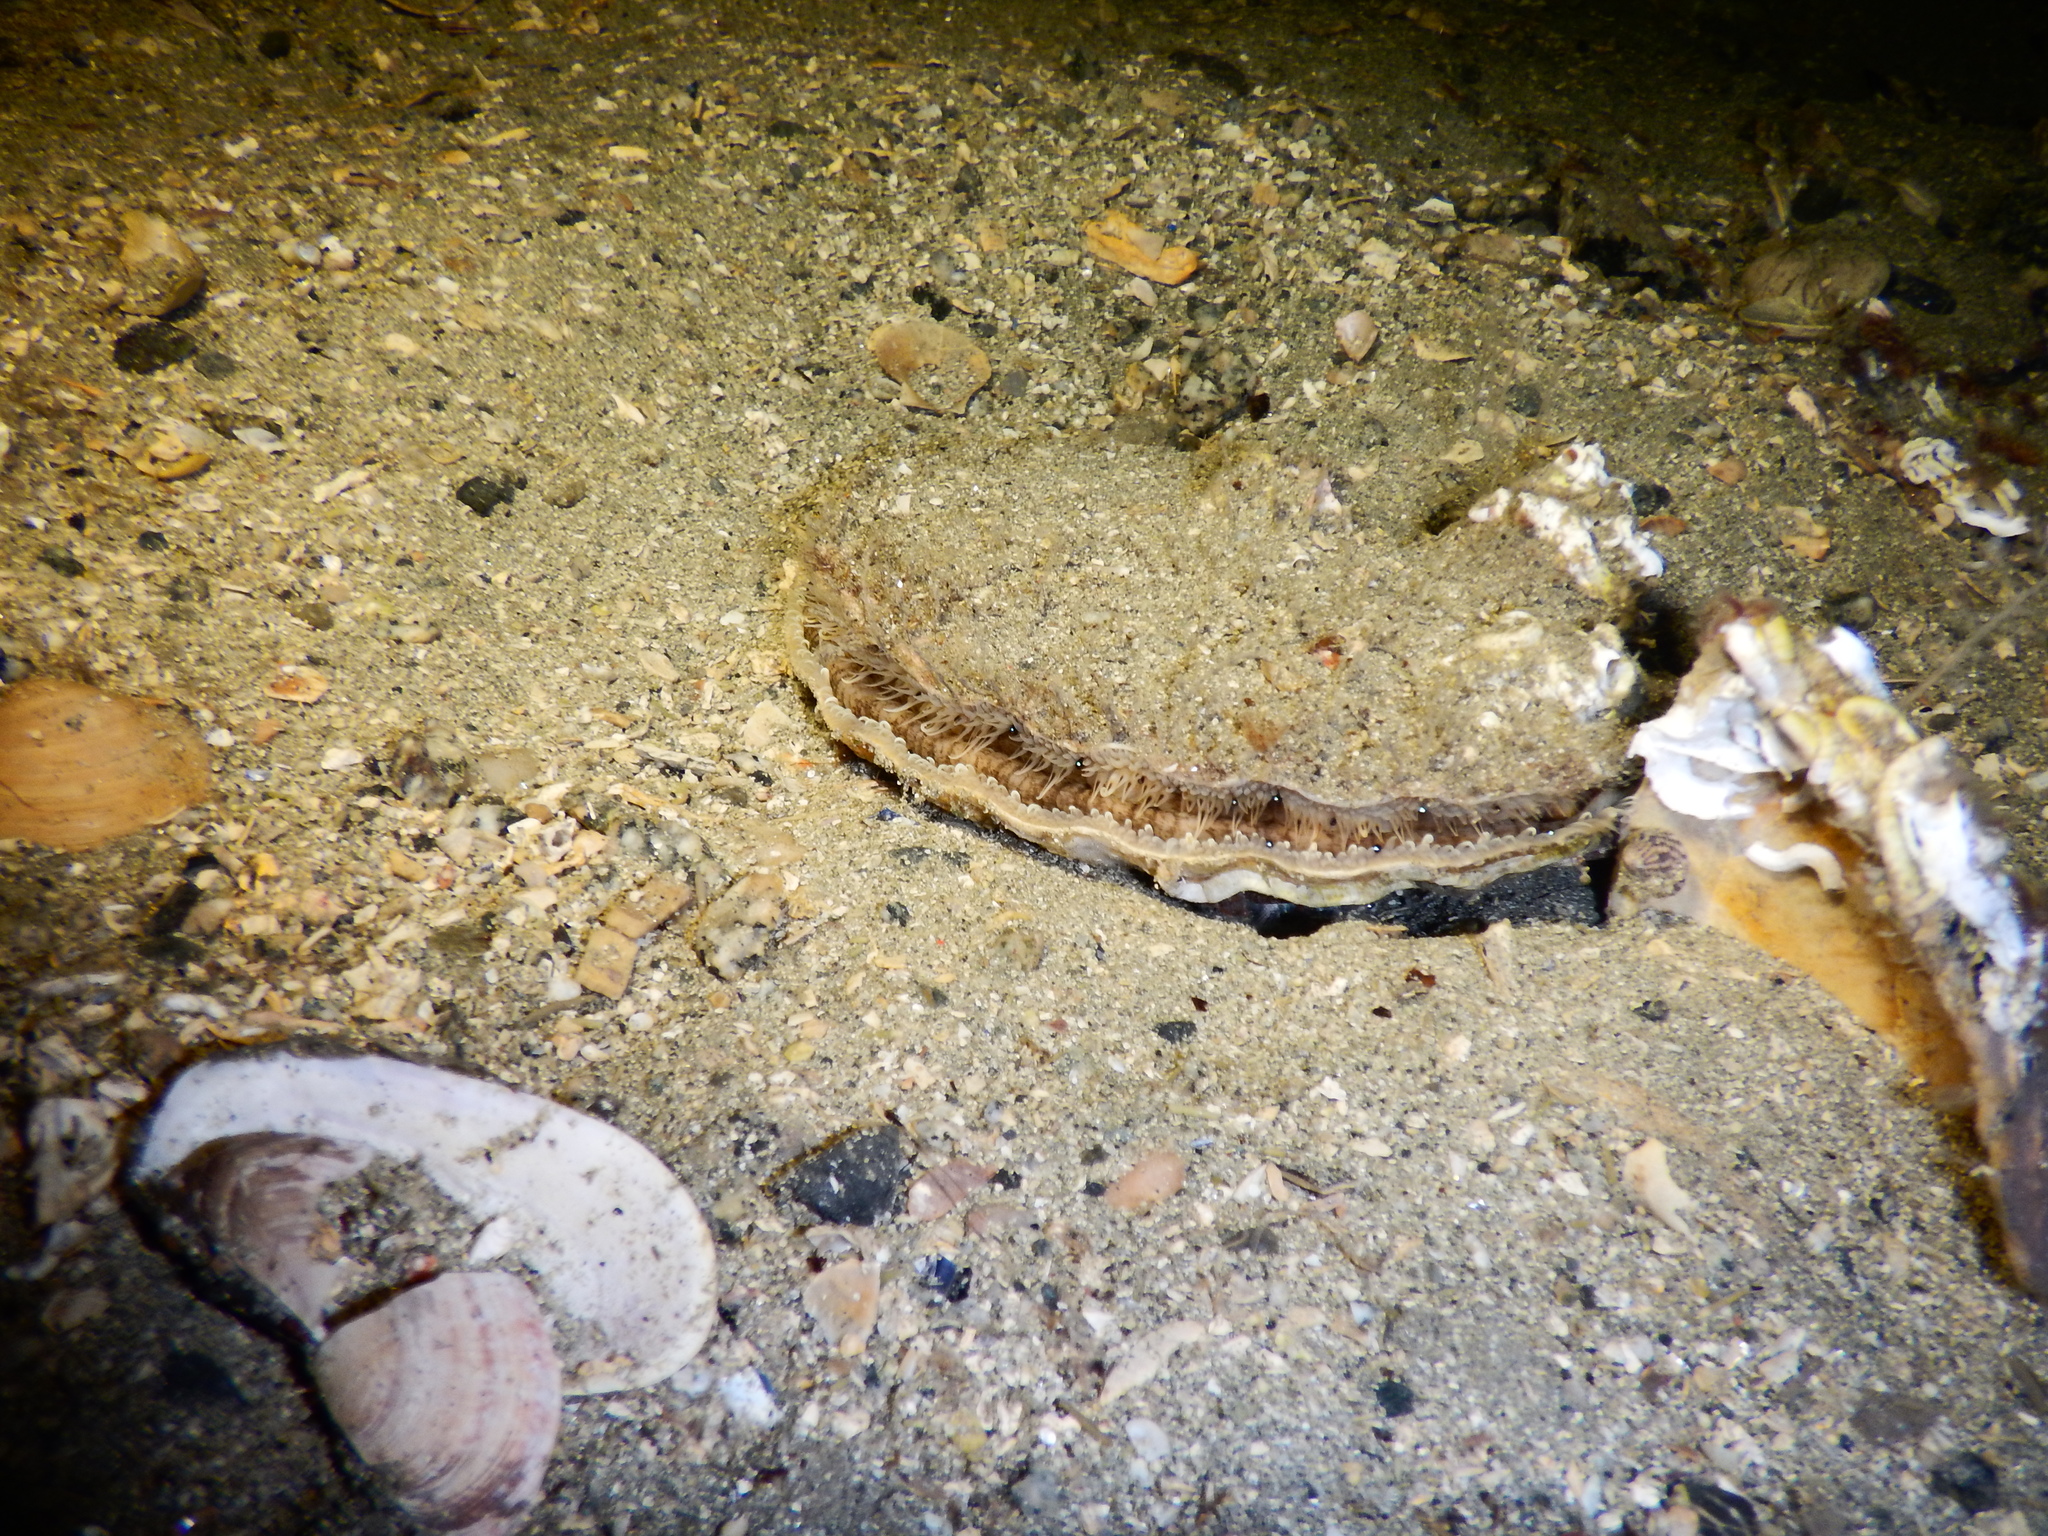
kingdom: Animalia
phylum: Mollusca
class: Bivalvia
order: Pectinida
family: Pectinidae
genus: Pecten
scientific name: Pecten maximus
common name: Great scallop
